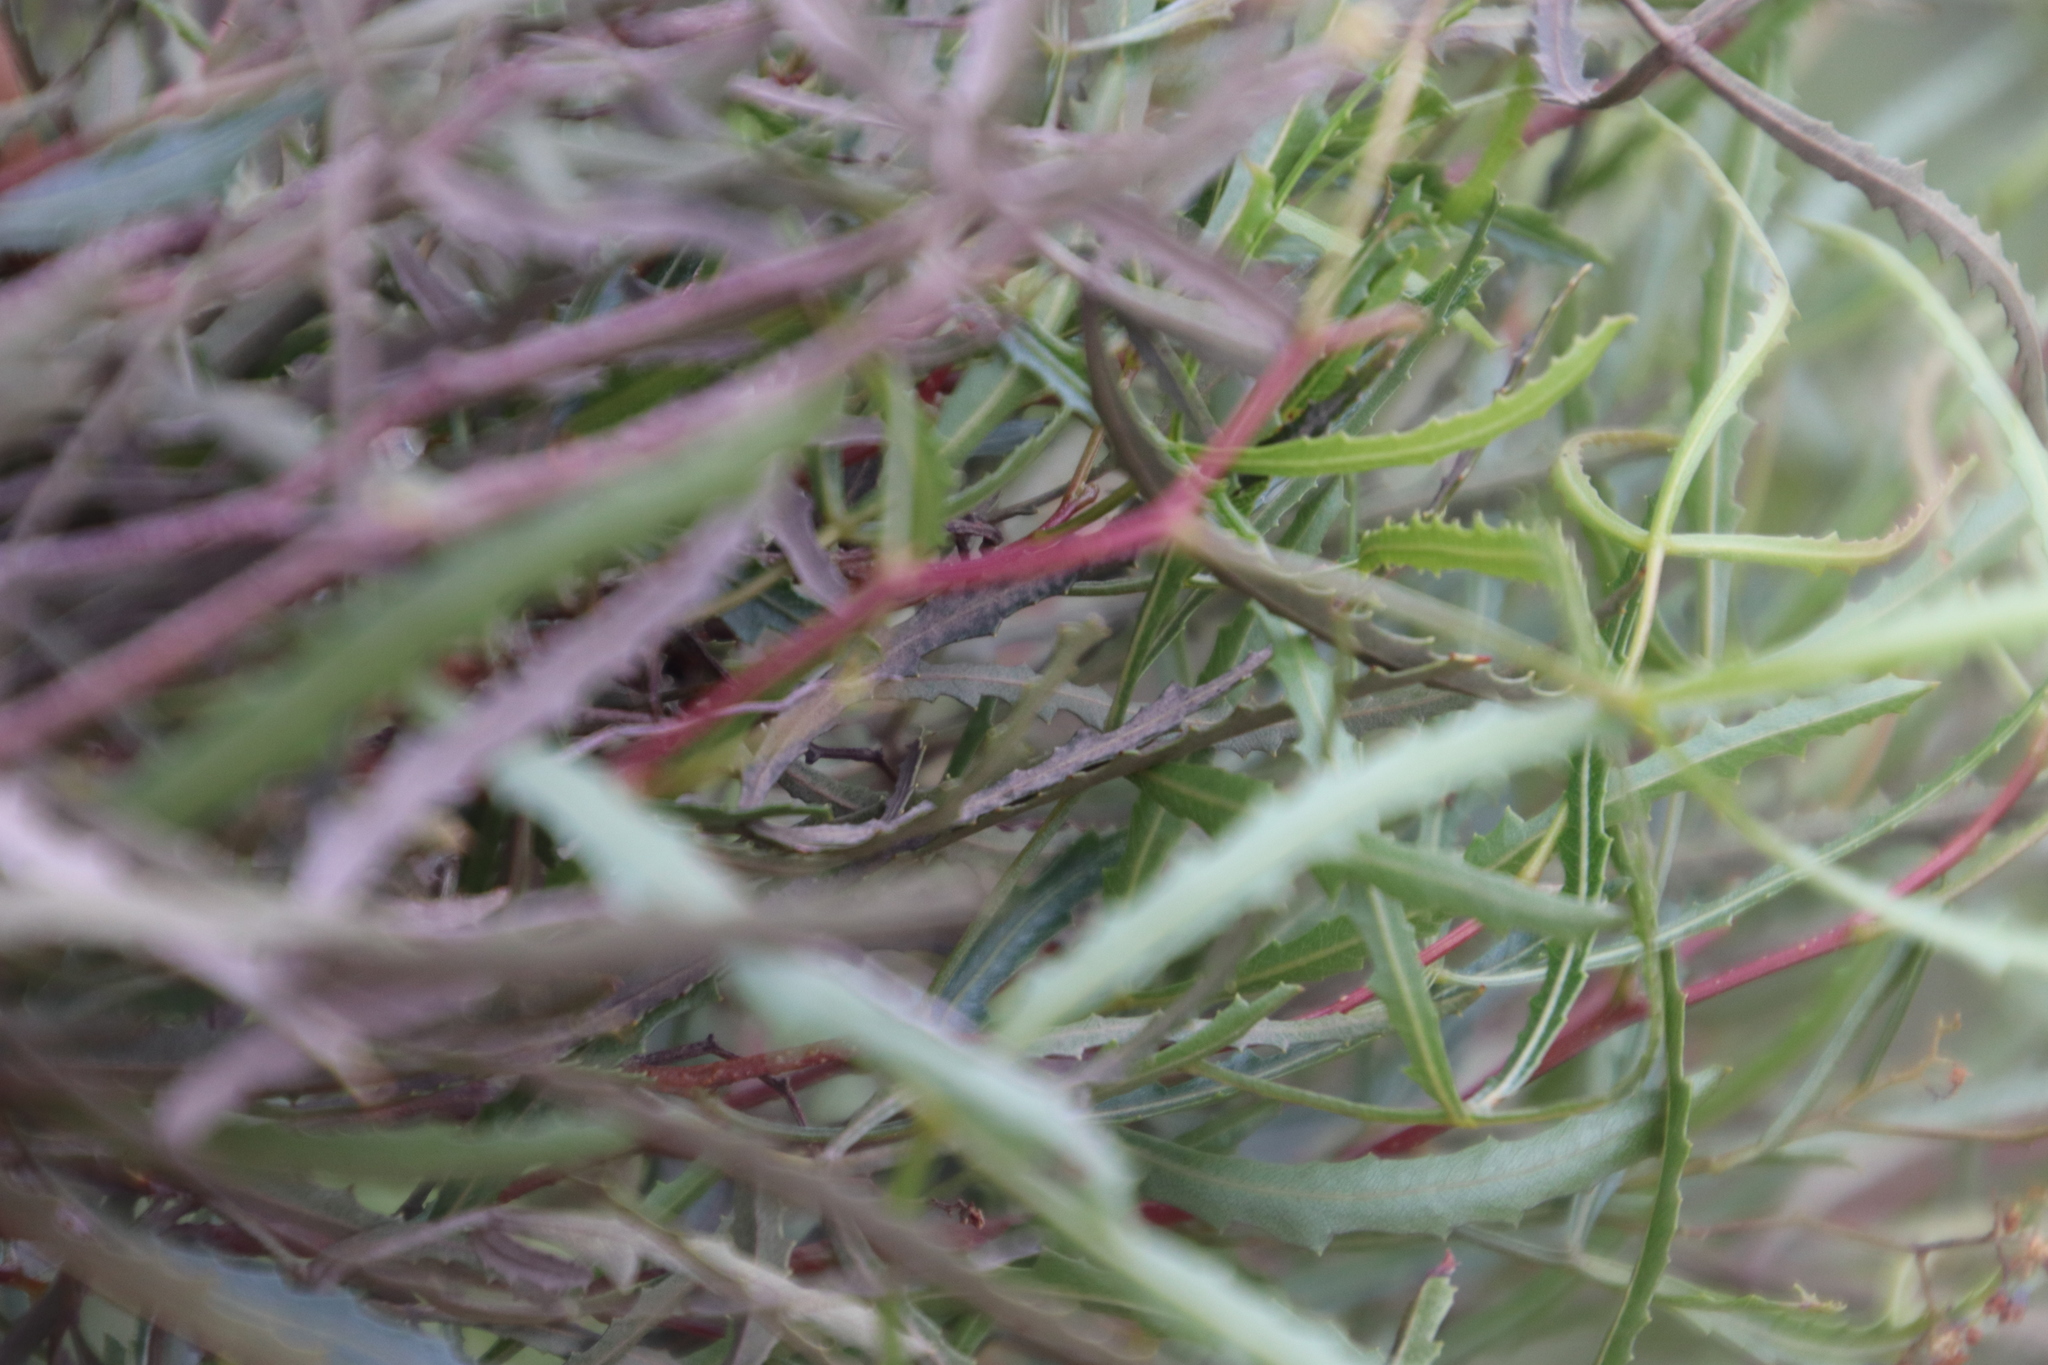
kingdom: Plantae
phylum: Tracheophyta
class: Magnoliopsida
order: Sapindales
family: Anacardiaceae
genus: Searsia
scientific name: Searsia erosa
